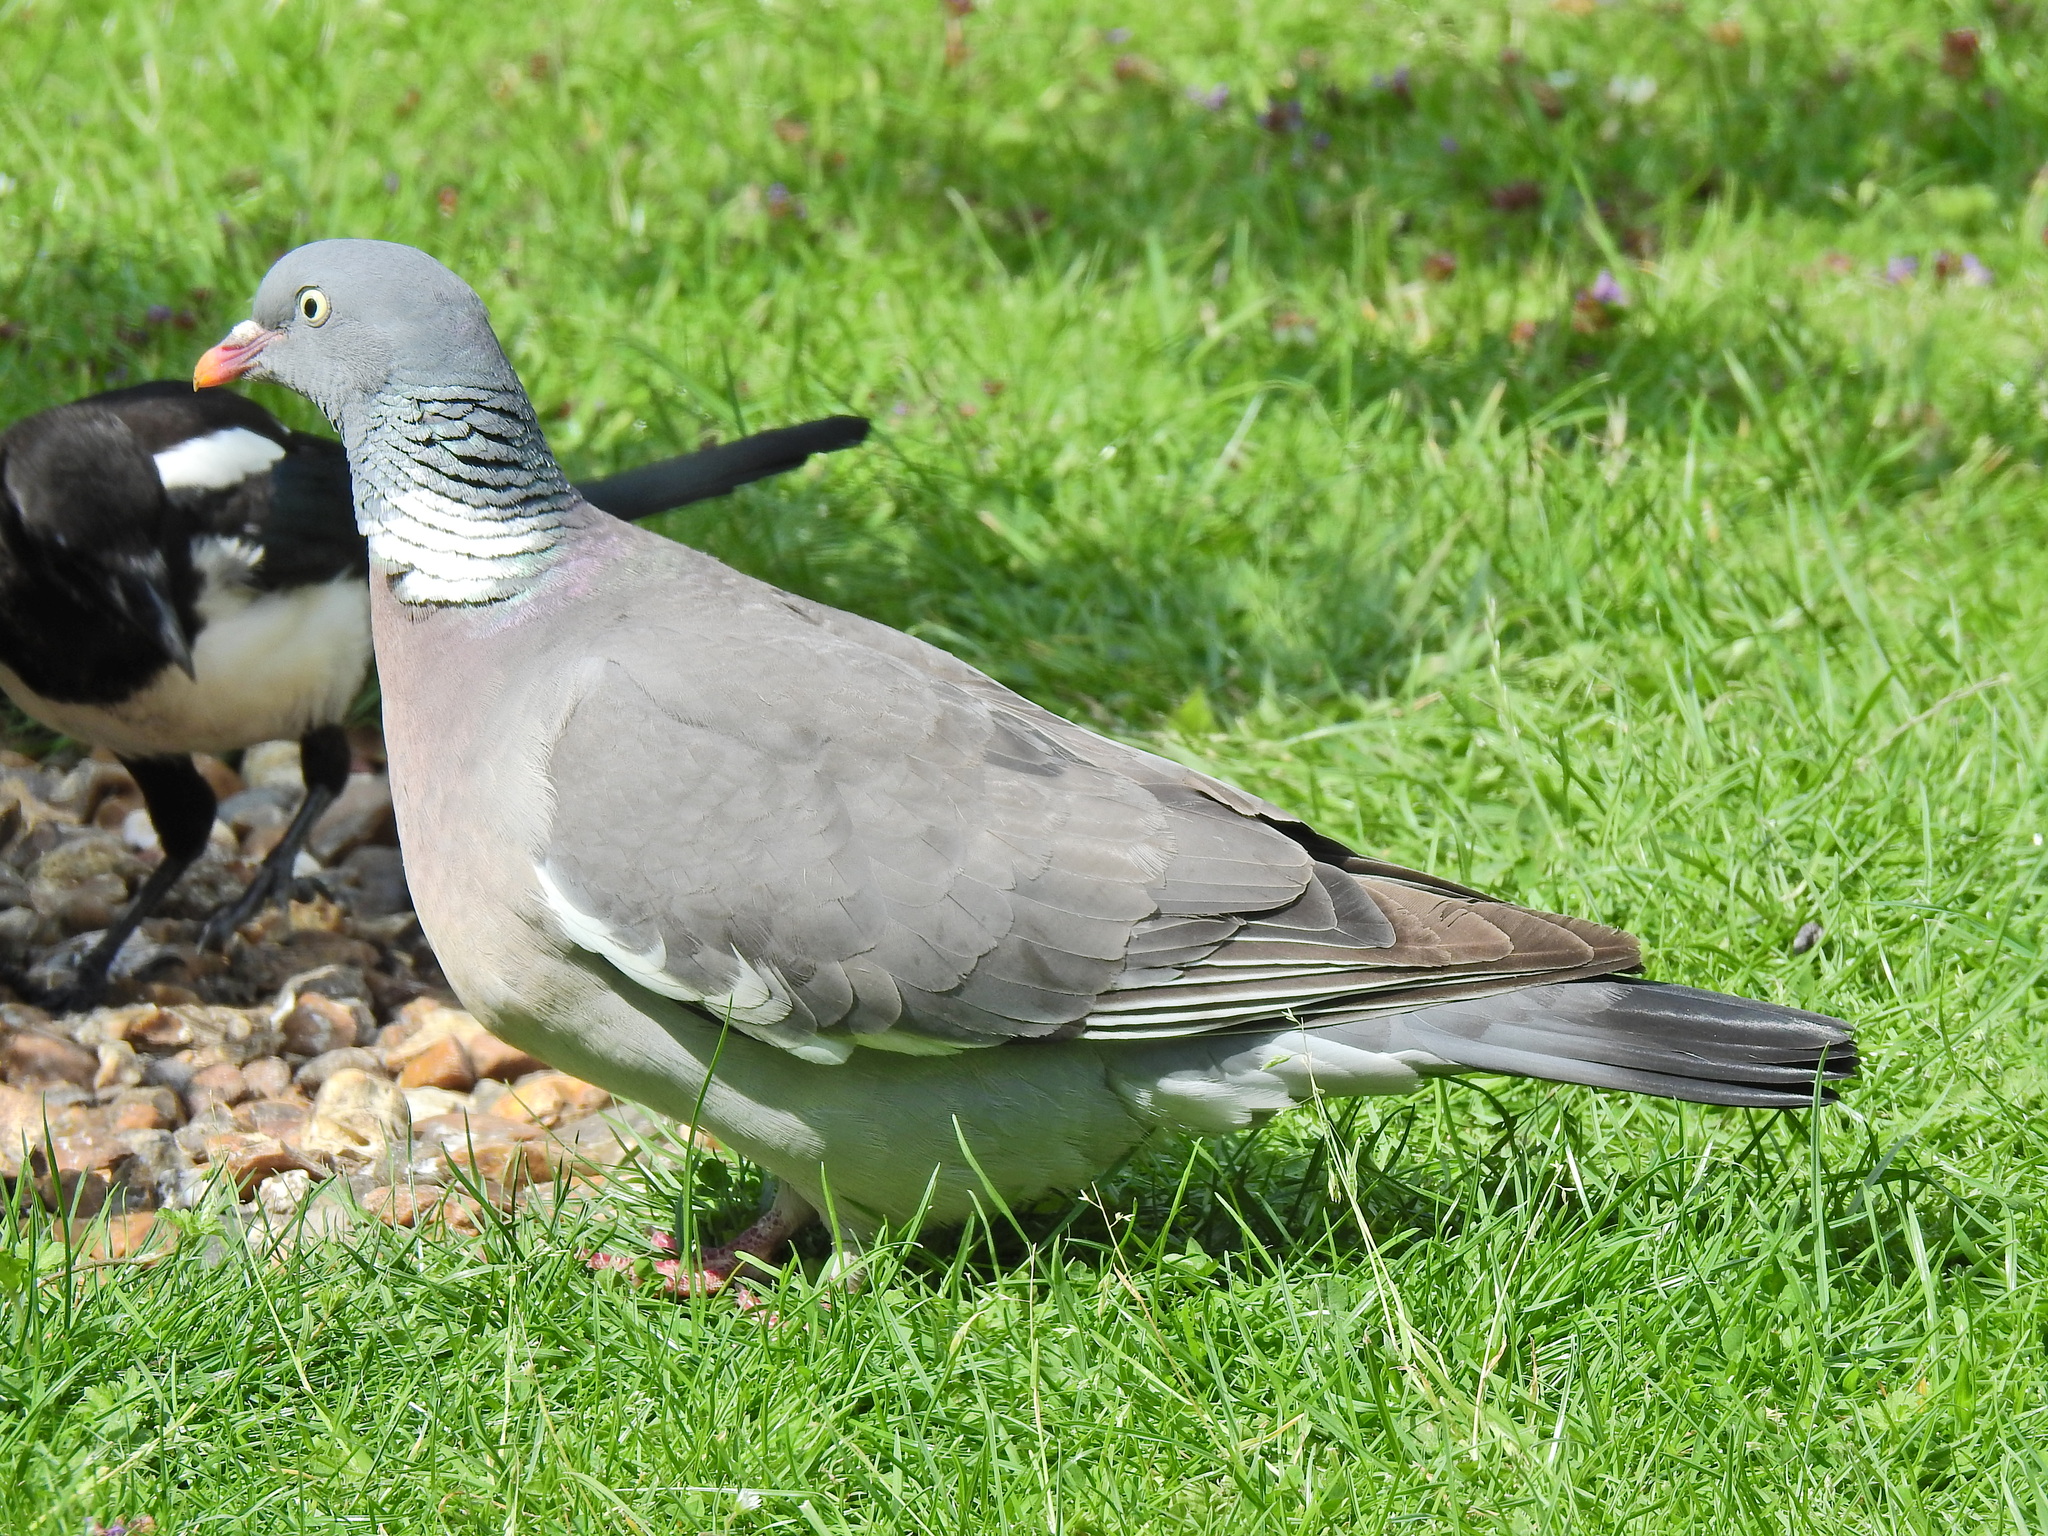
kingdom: Animalia
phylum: Chordata
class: Aves
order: Columbiformes
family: Columbidae
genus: Columba
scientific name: Columba palumbus
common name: Common wood pigeon
